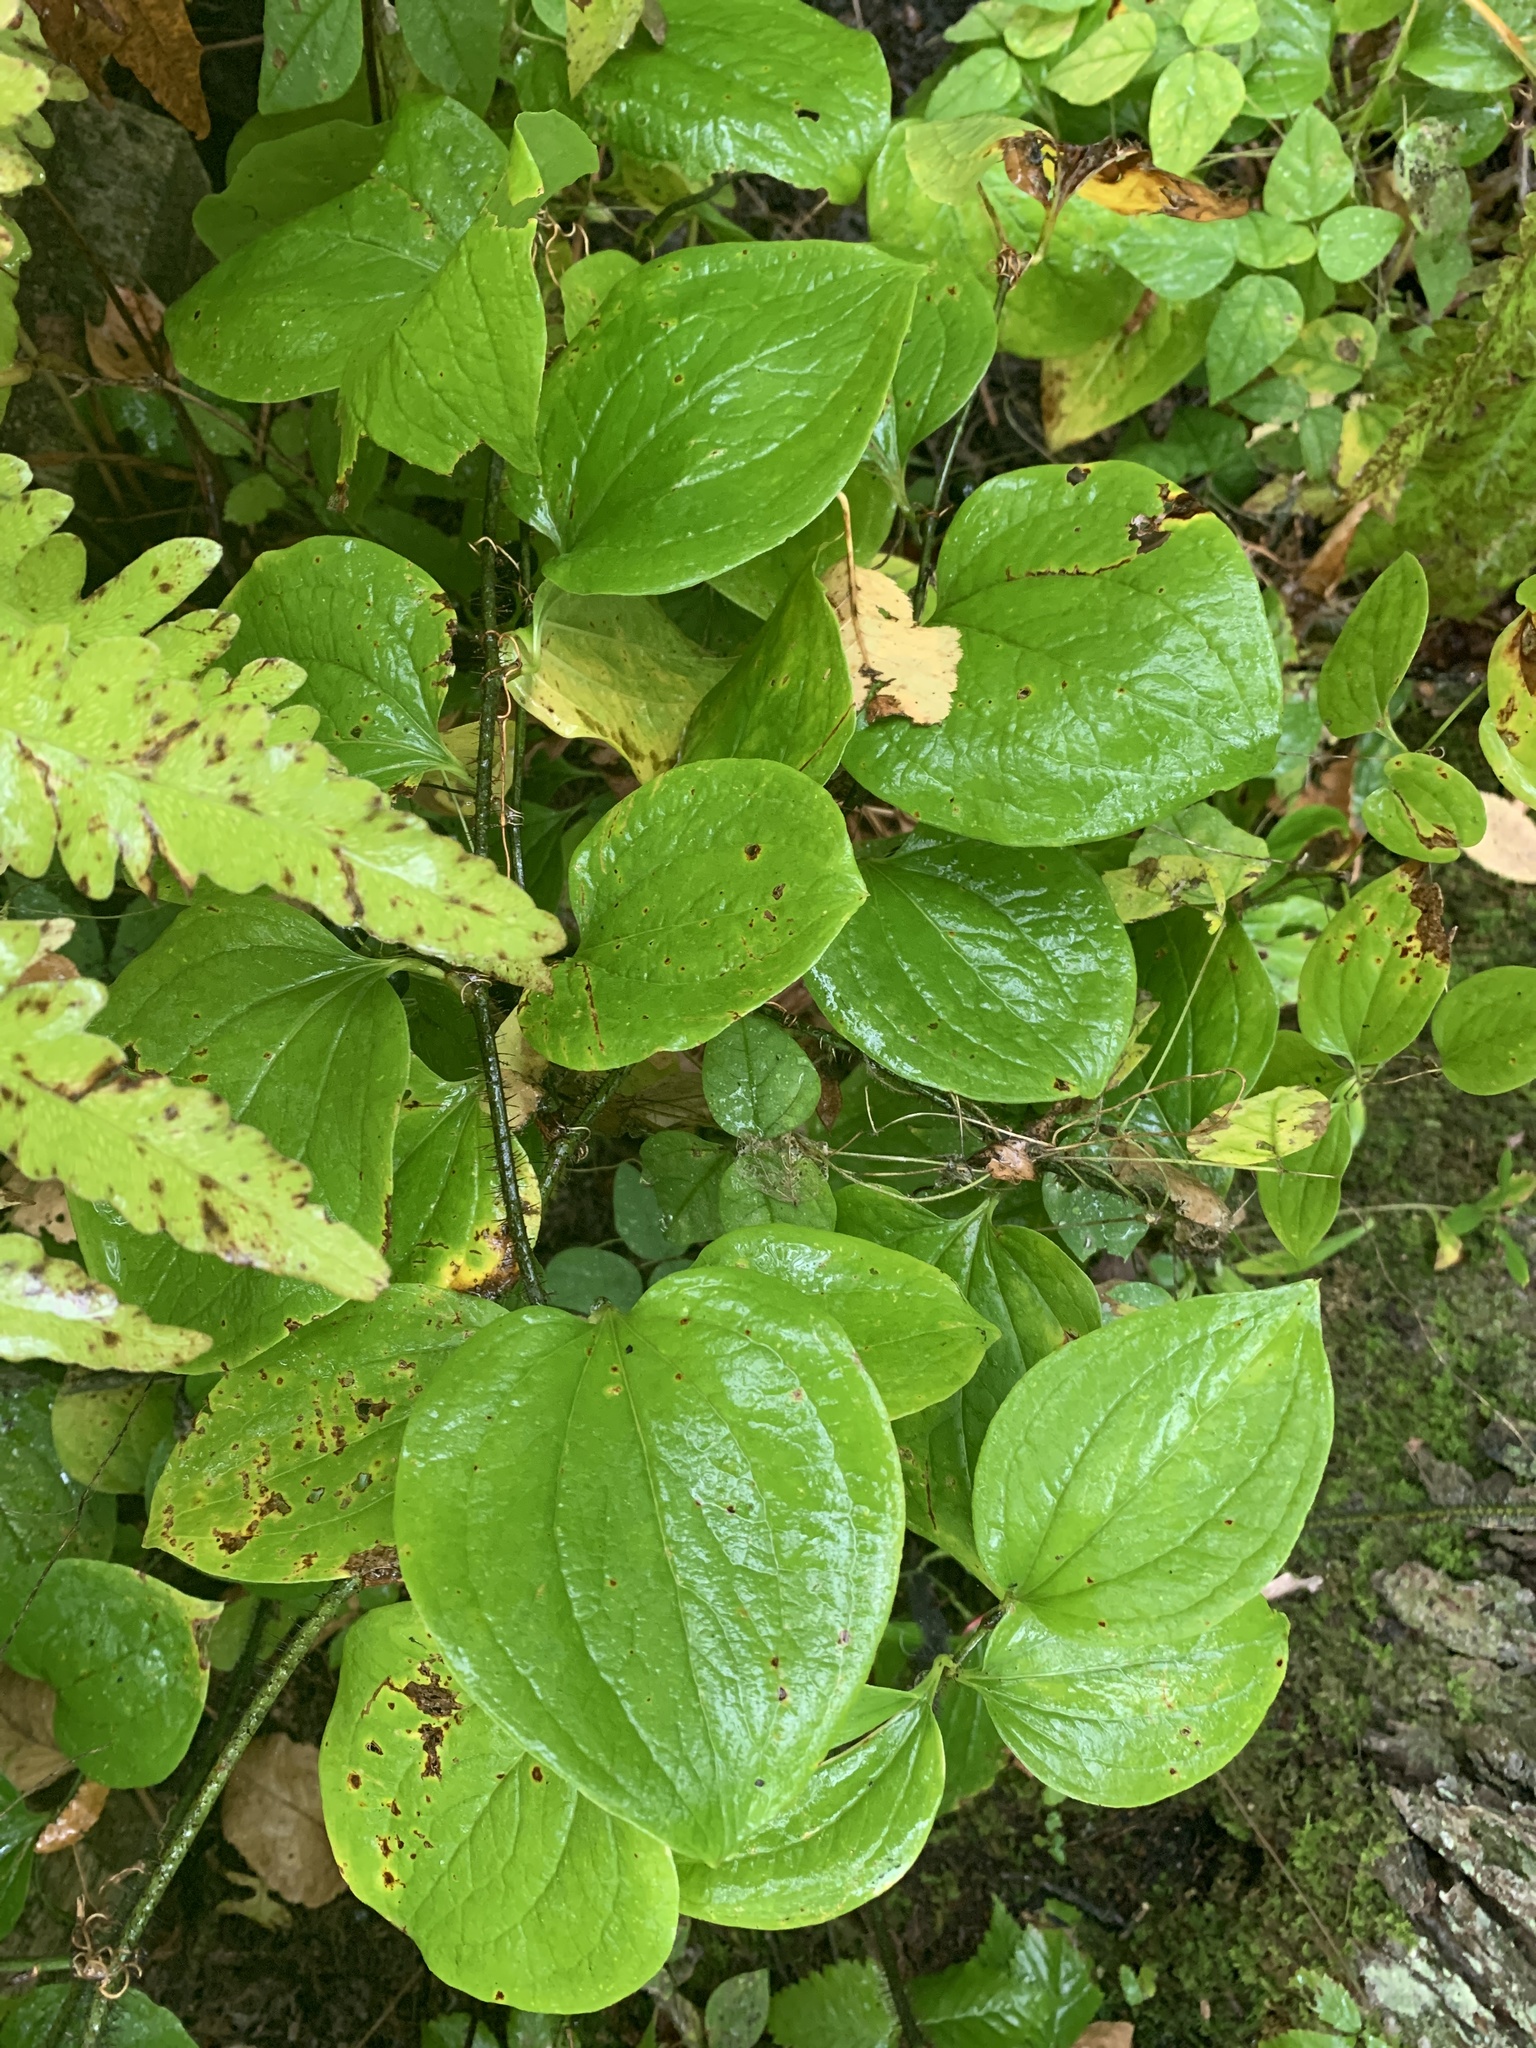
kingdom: Plantae
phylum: Tracheophyta
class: Liliopsida
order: Liliales
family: Smilacaceae
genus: Smilax
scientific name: Smilax tamnoides
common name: Hellfetter
